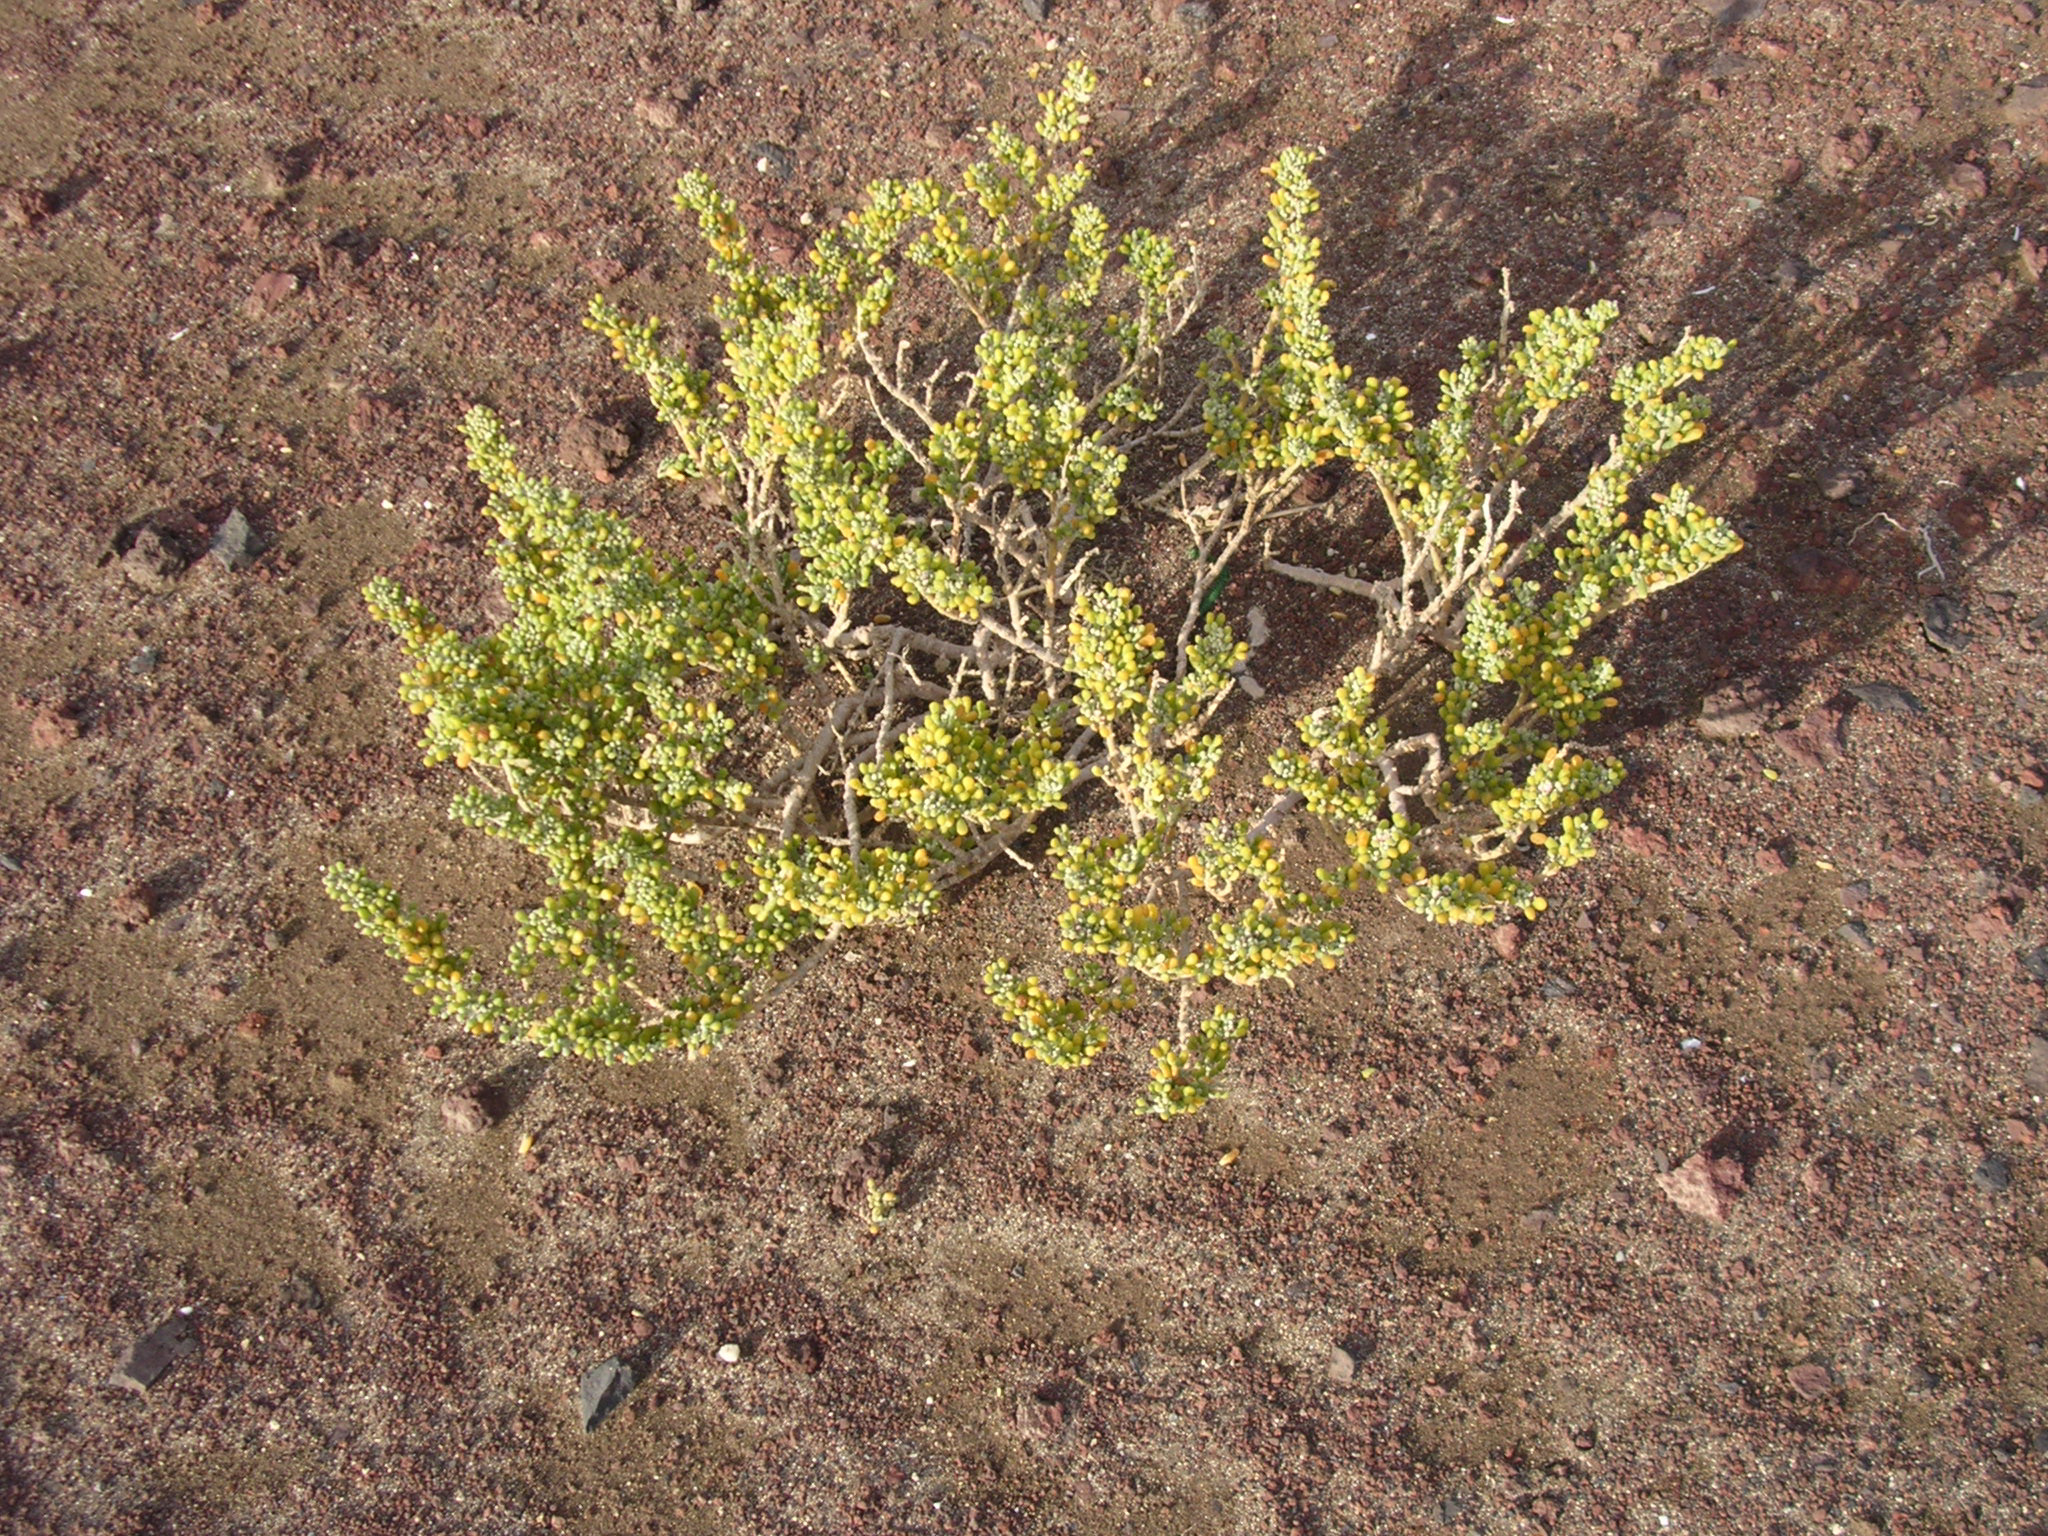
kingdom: Plantae
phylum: Tracheophyta
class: Magnoliopsida
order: Zygophyllales
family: Zygophyllaceae
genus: Tetraena
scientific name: Tetraena fontanesii
